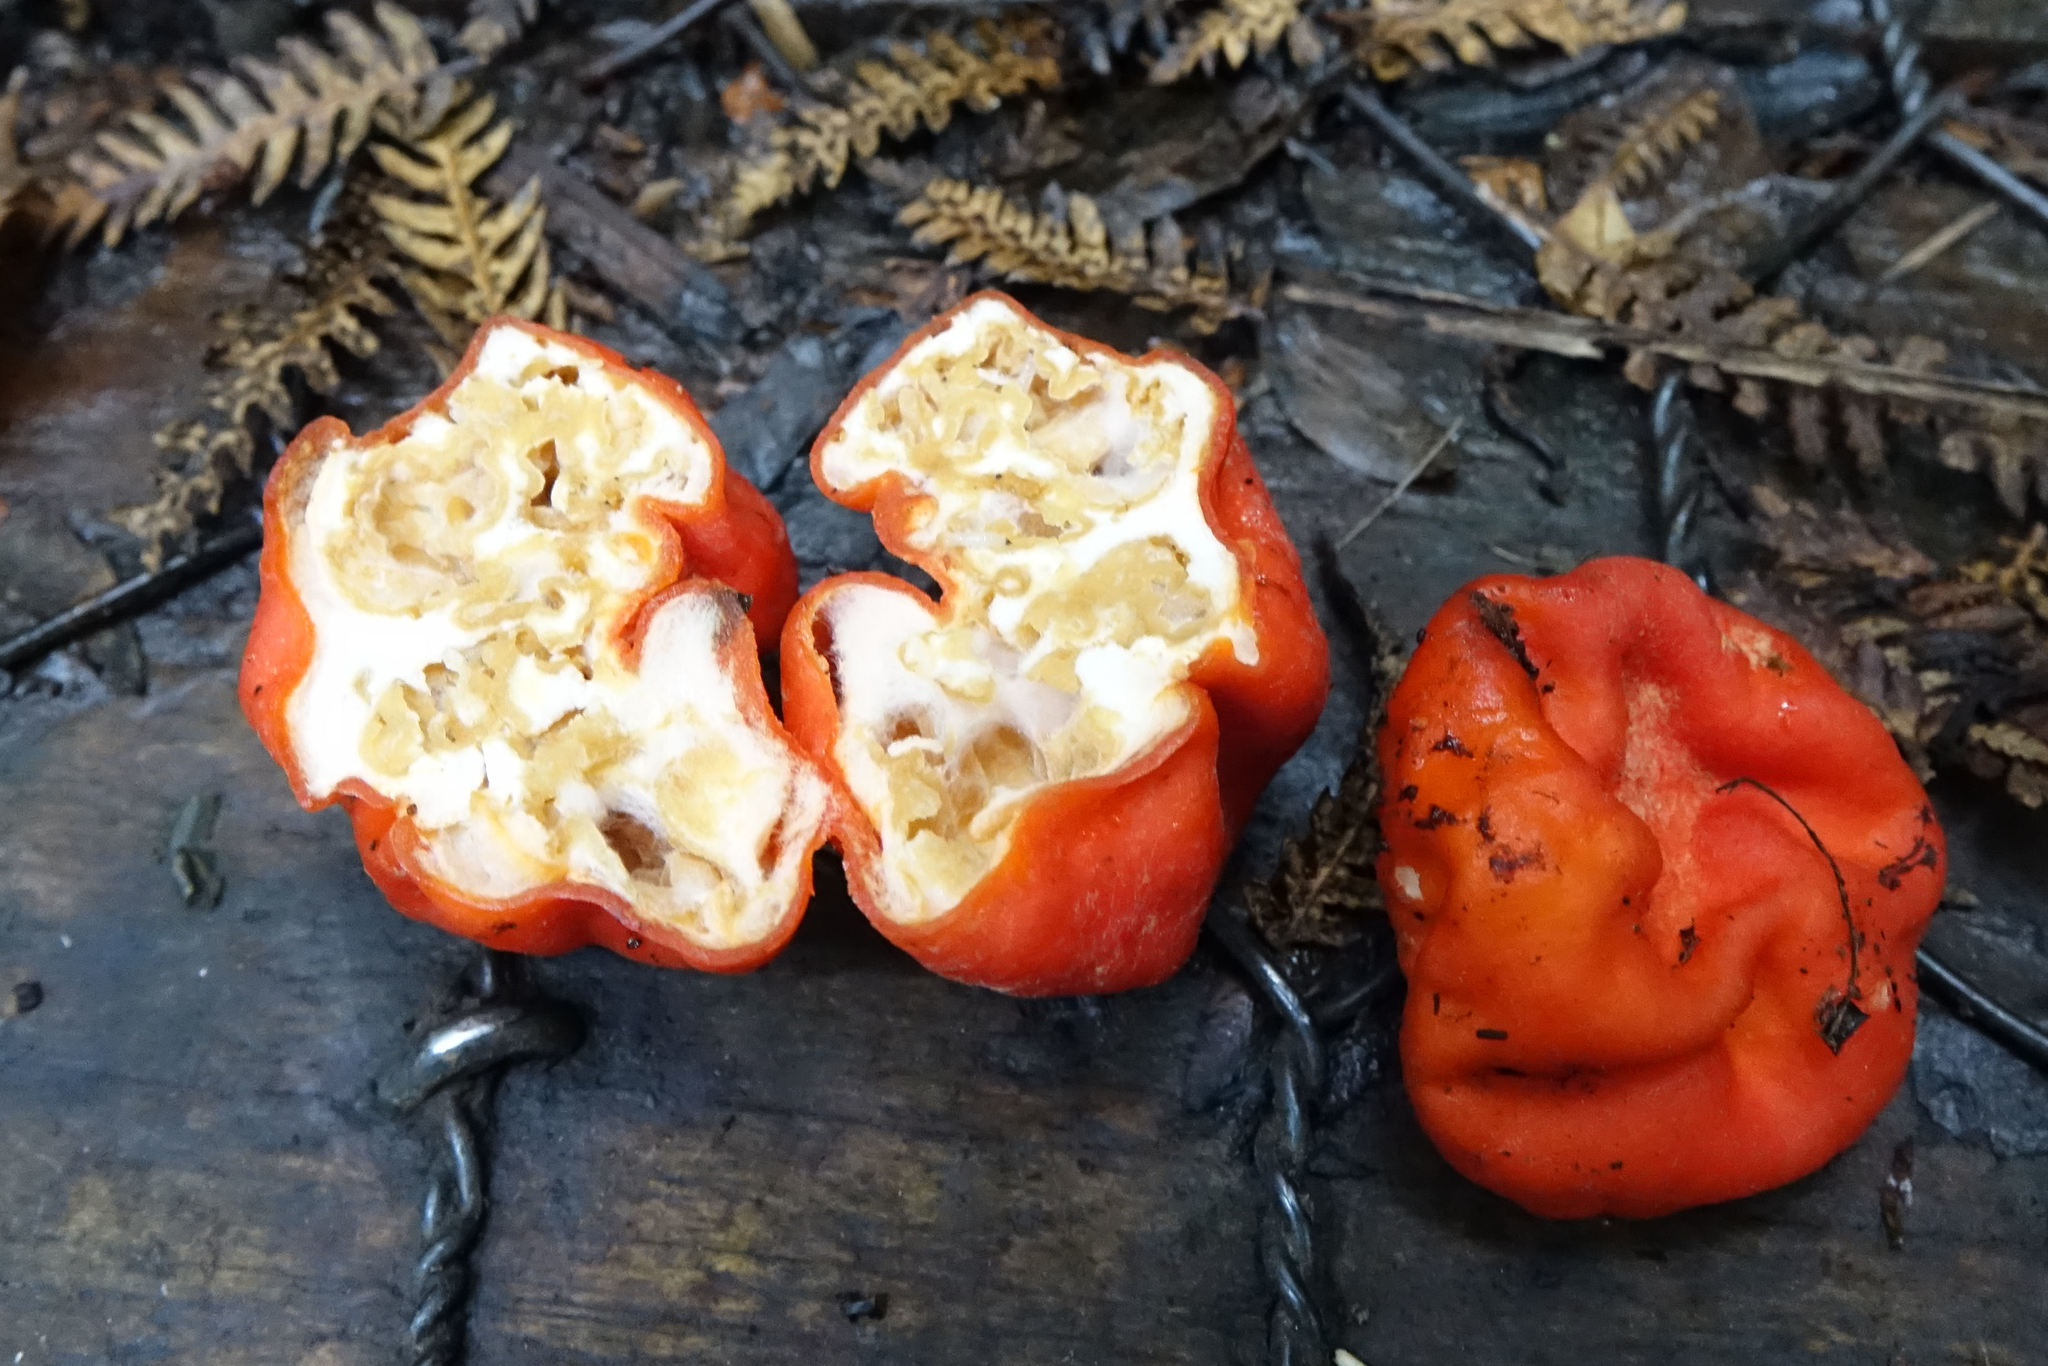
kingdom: Fungi
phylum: Ascomycota
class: Pezizomycetes
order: Pezizales
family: Pyronemataceae
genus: Paurocotylis
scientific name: Paurocotylis pila
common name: Scarlet berry truffle
